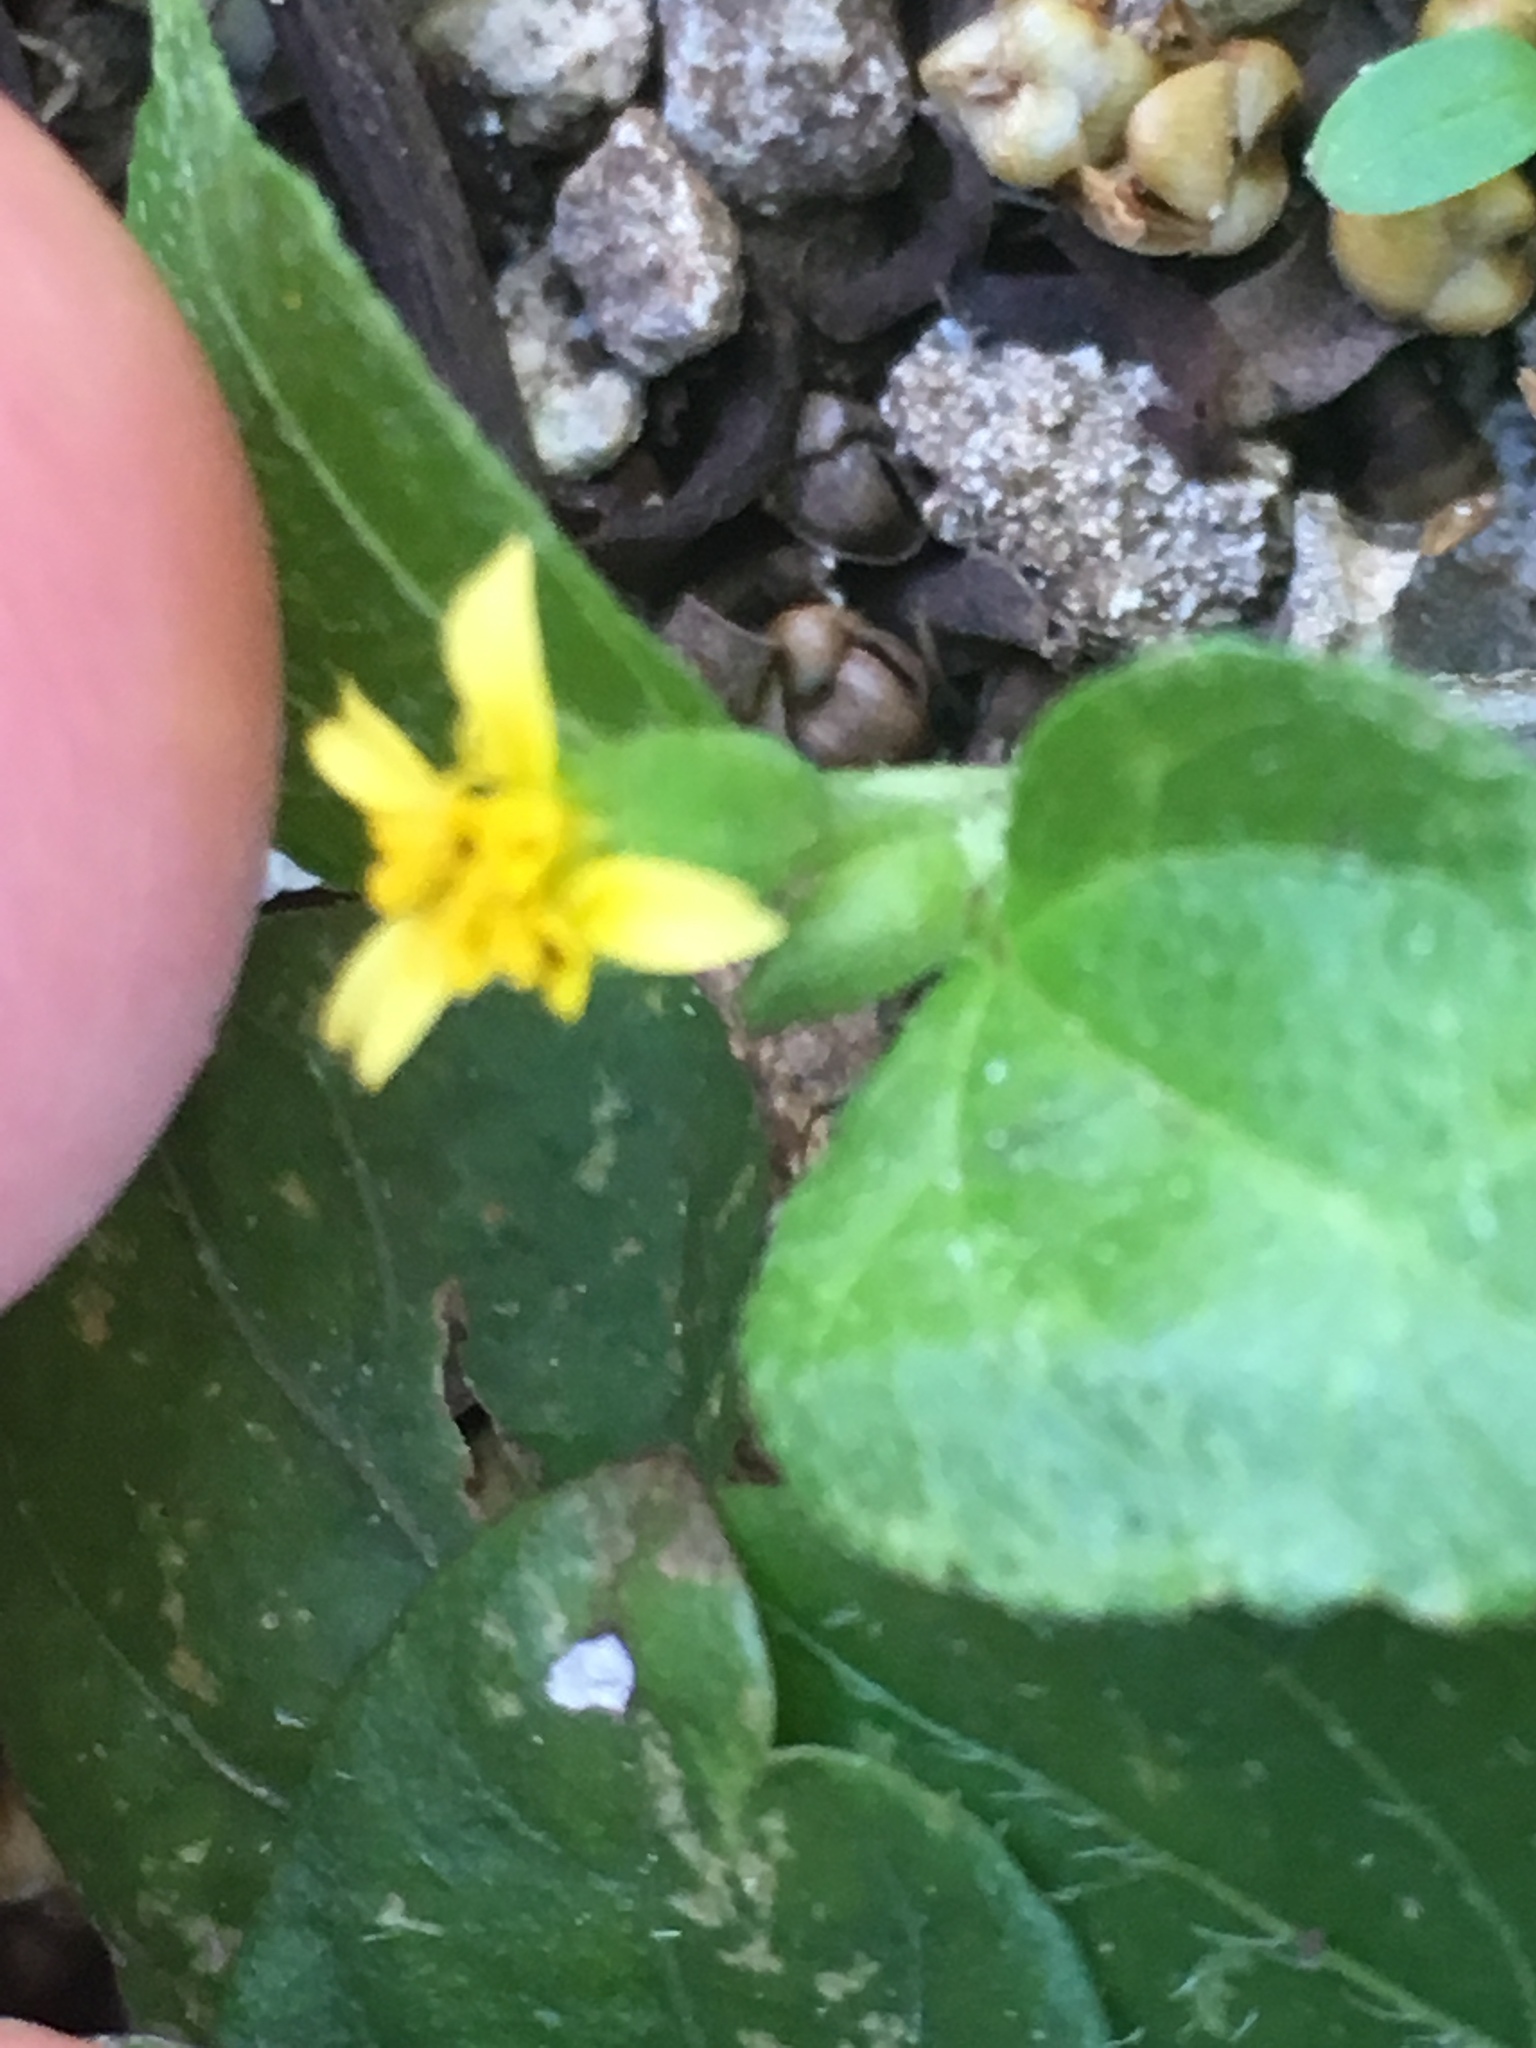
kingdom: Plantae
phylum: Tracheophyta
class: Magnoliopsida
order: Asterales
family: Asteraceae
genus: Calyptocarpus
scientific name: Calyptocarpus vialis
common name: Straggler daisy
